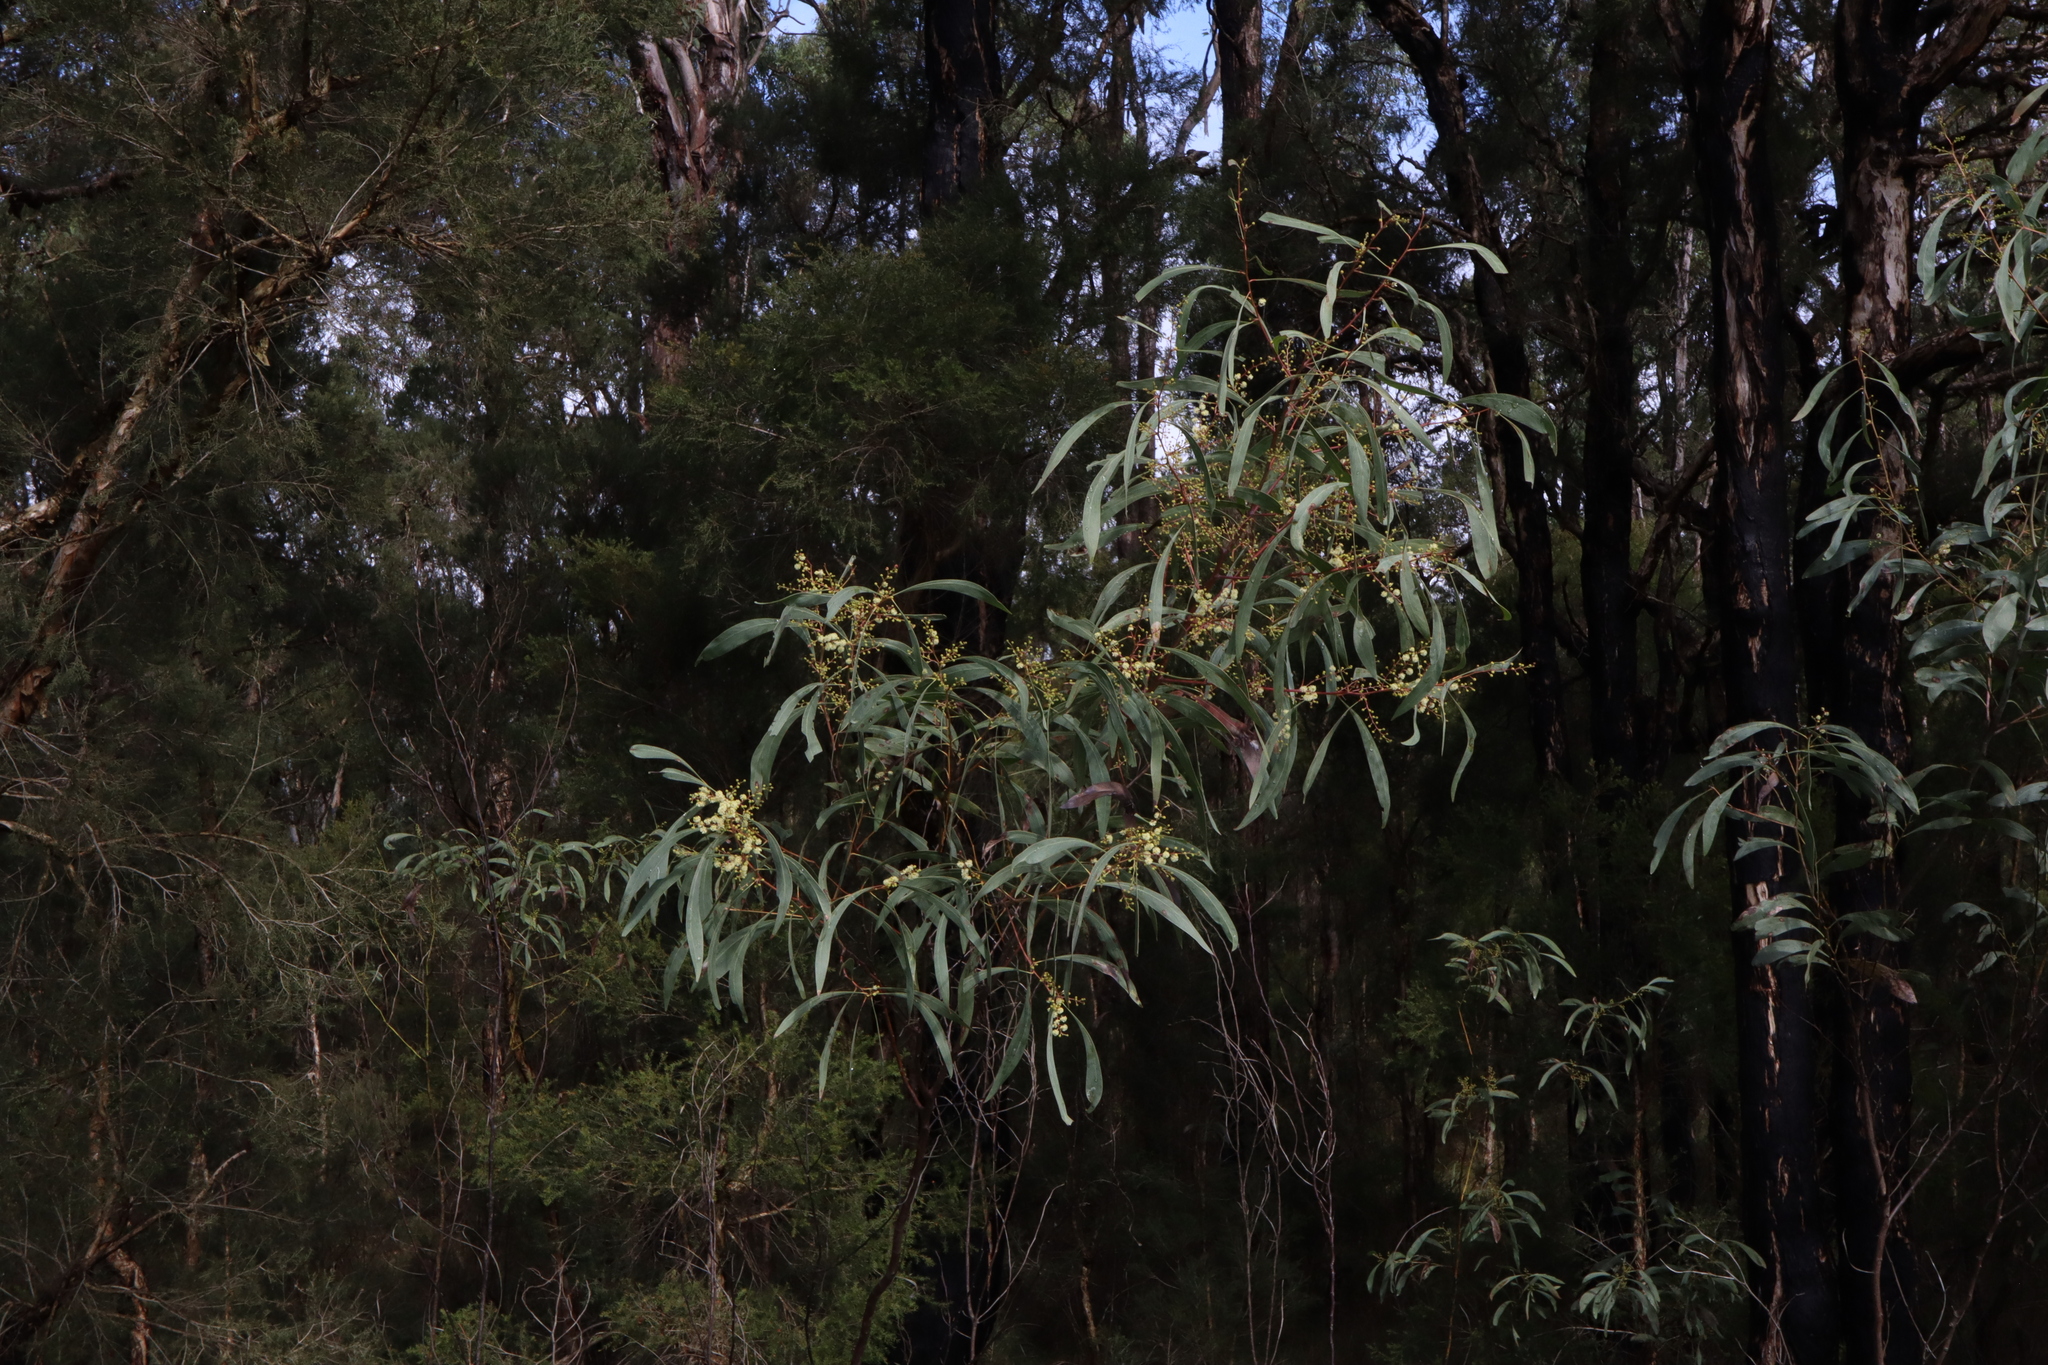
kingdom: Plantae
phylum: Tracheophyta
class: Magnoliopsida
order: Fabales
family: Fabaceae
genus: Acacia
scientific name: Acacia falcata
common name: Burra acacia
